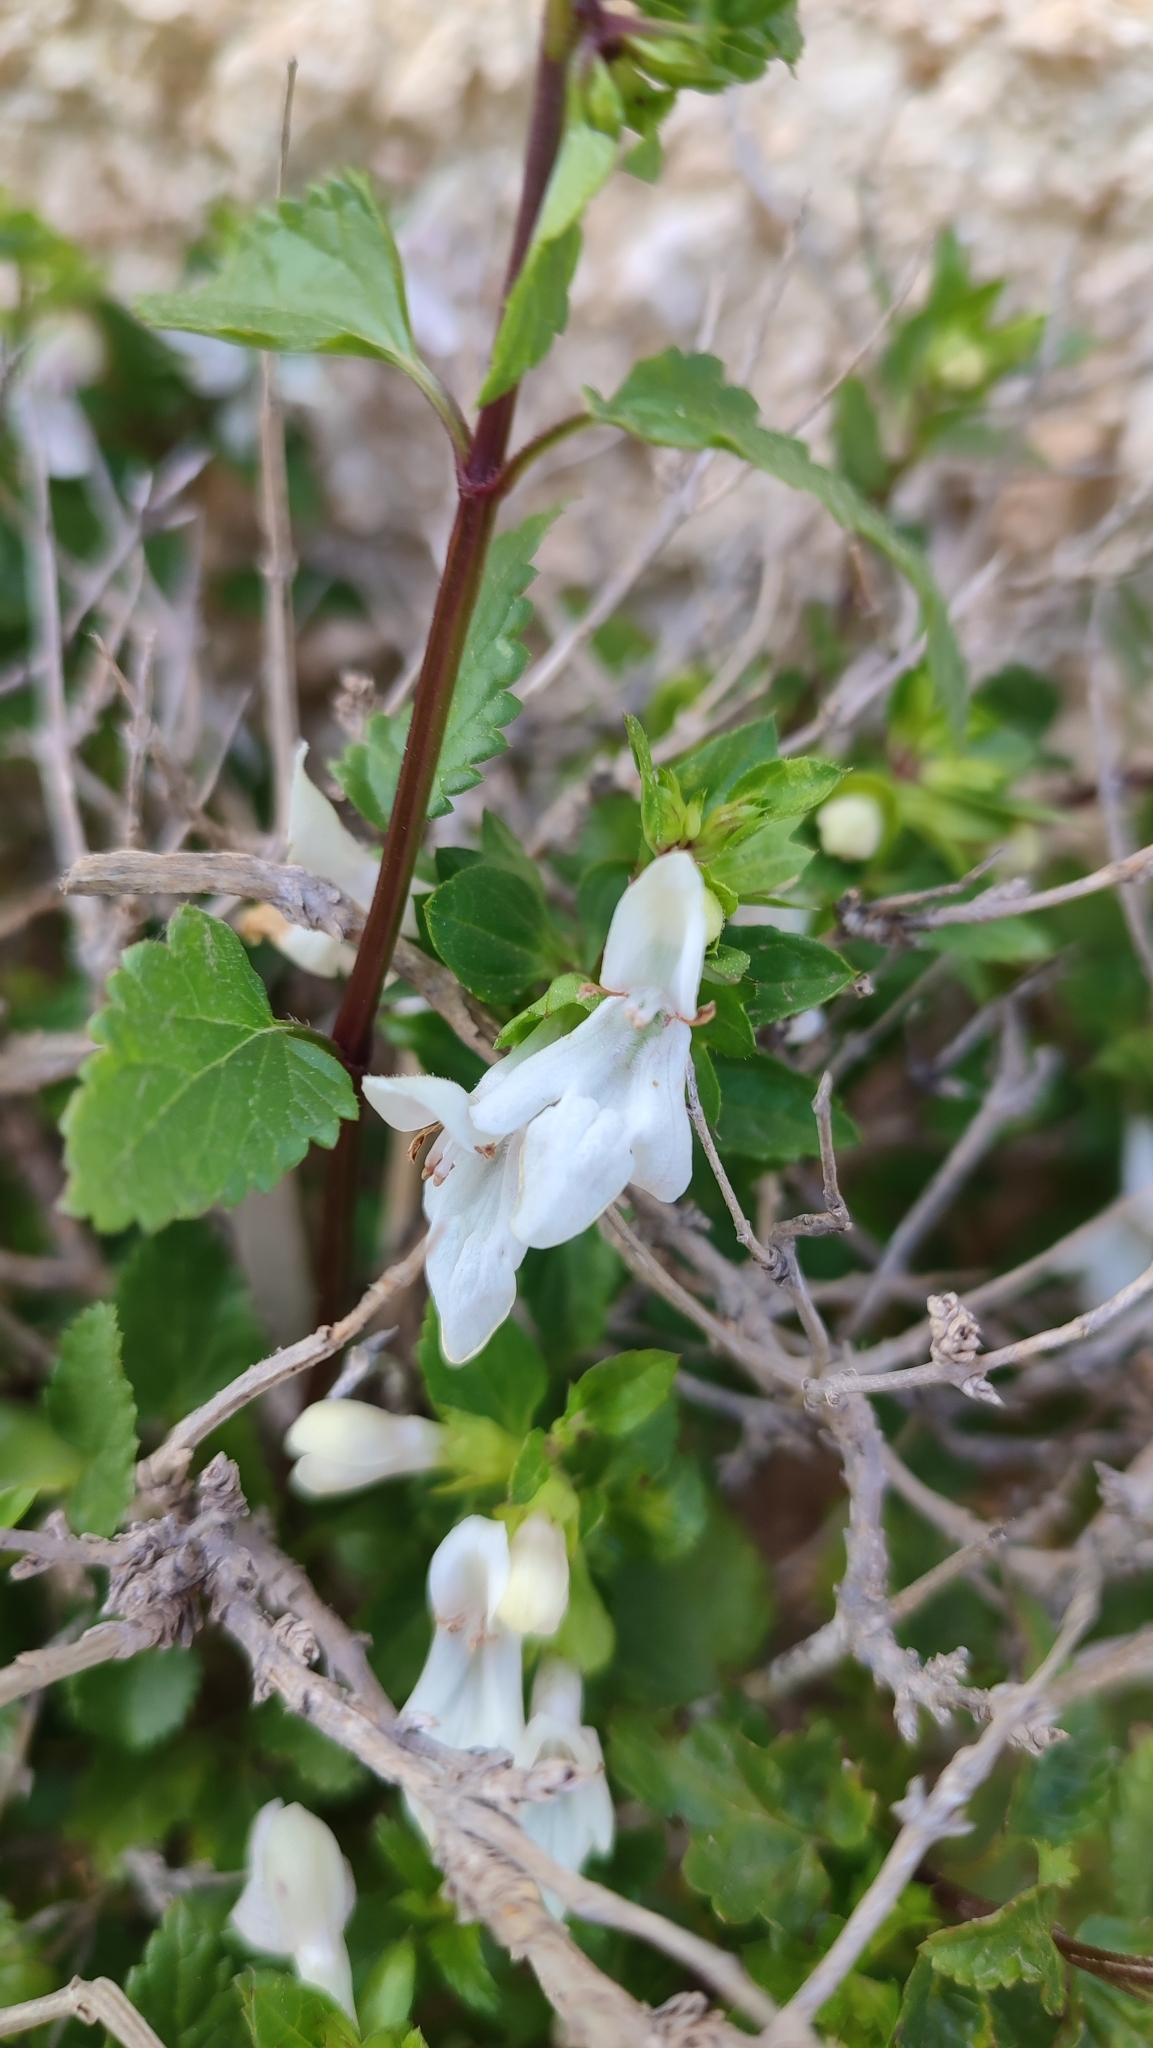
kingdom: Plantae
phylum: Tracheophyta
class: Magnoliopsida
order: Lamiales
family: Lamiaceae
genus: Prasium
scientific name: Prasium majus
